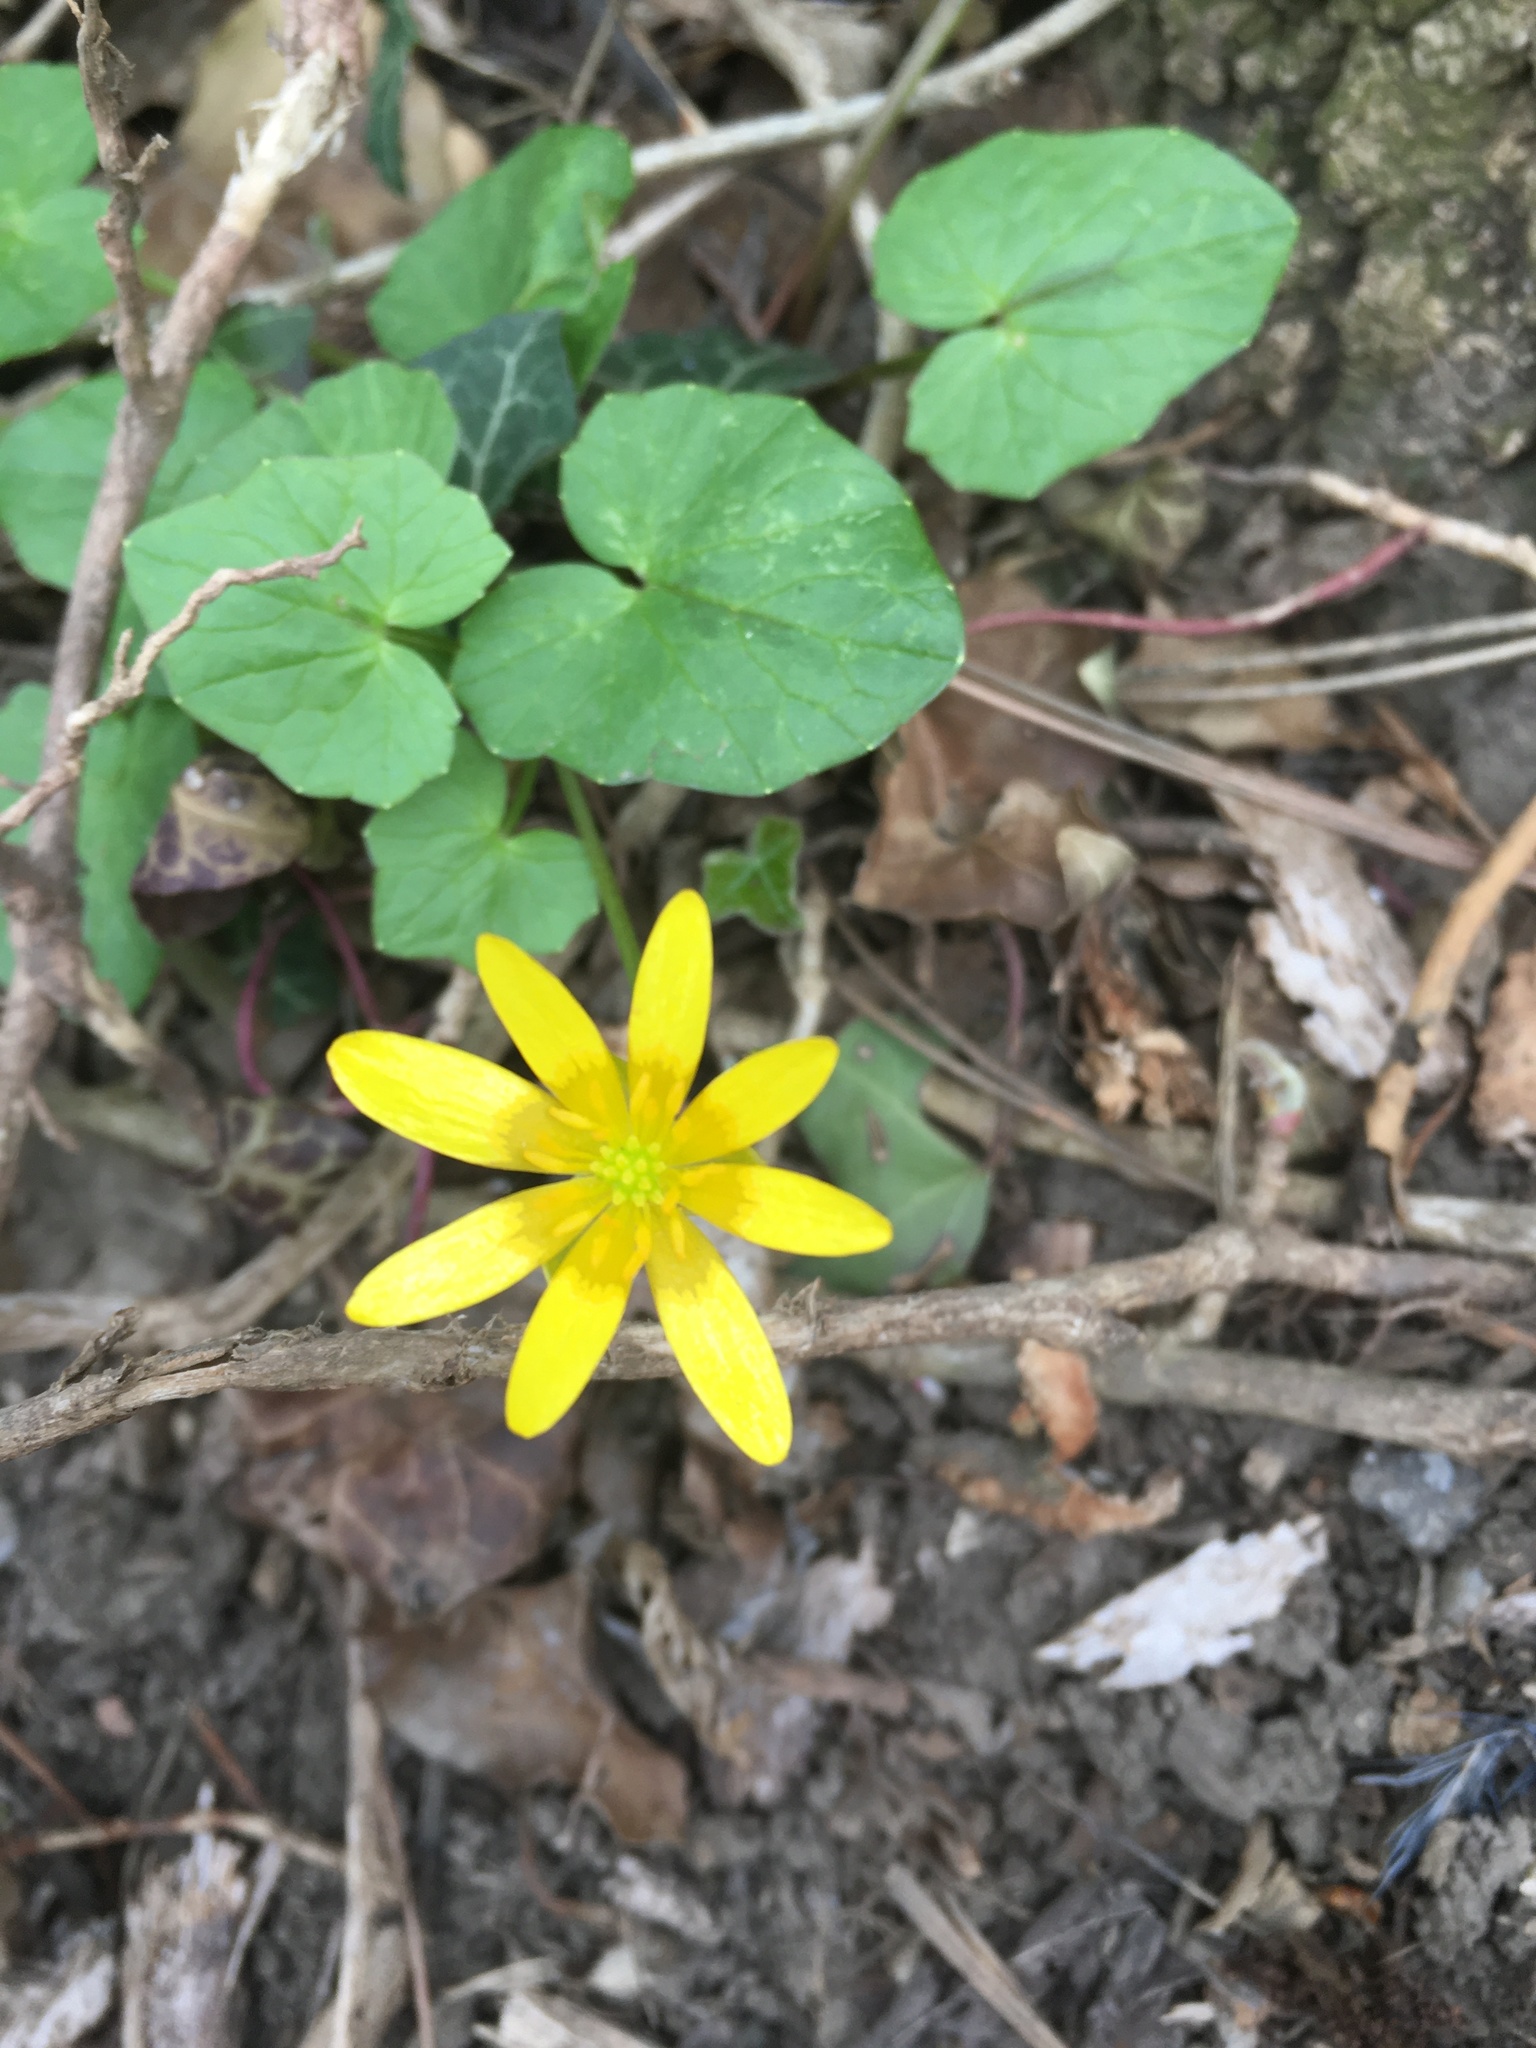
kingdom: Plantae
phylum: Tracheophyta
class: Magnoliopsida
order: Ranunculales
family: Ranunculaceae
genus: Ficaria
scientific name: Ficaria verna
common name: Lesser celandine
